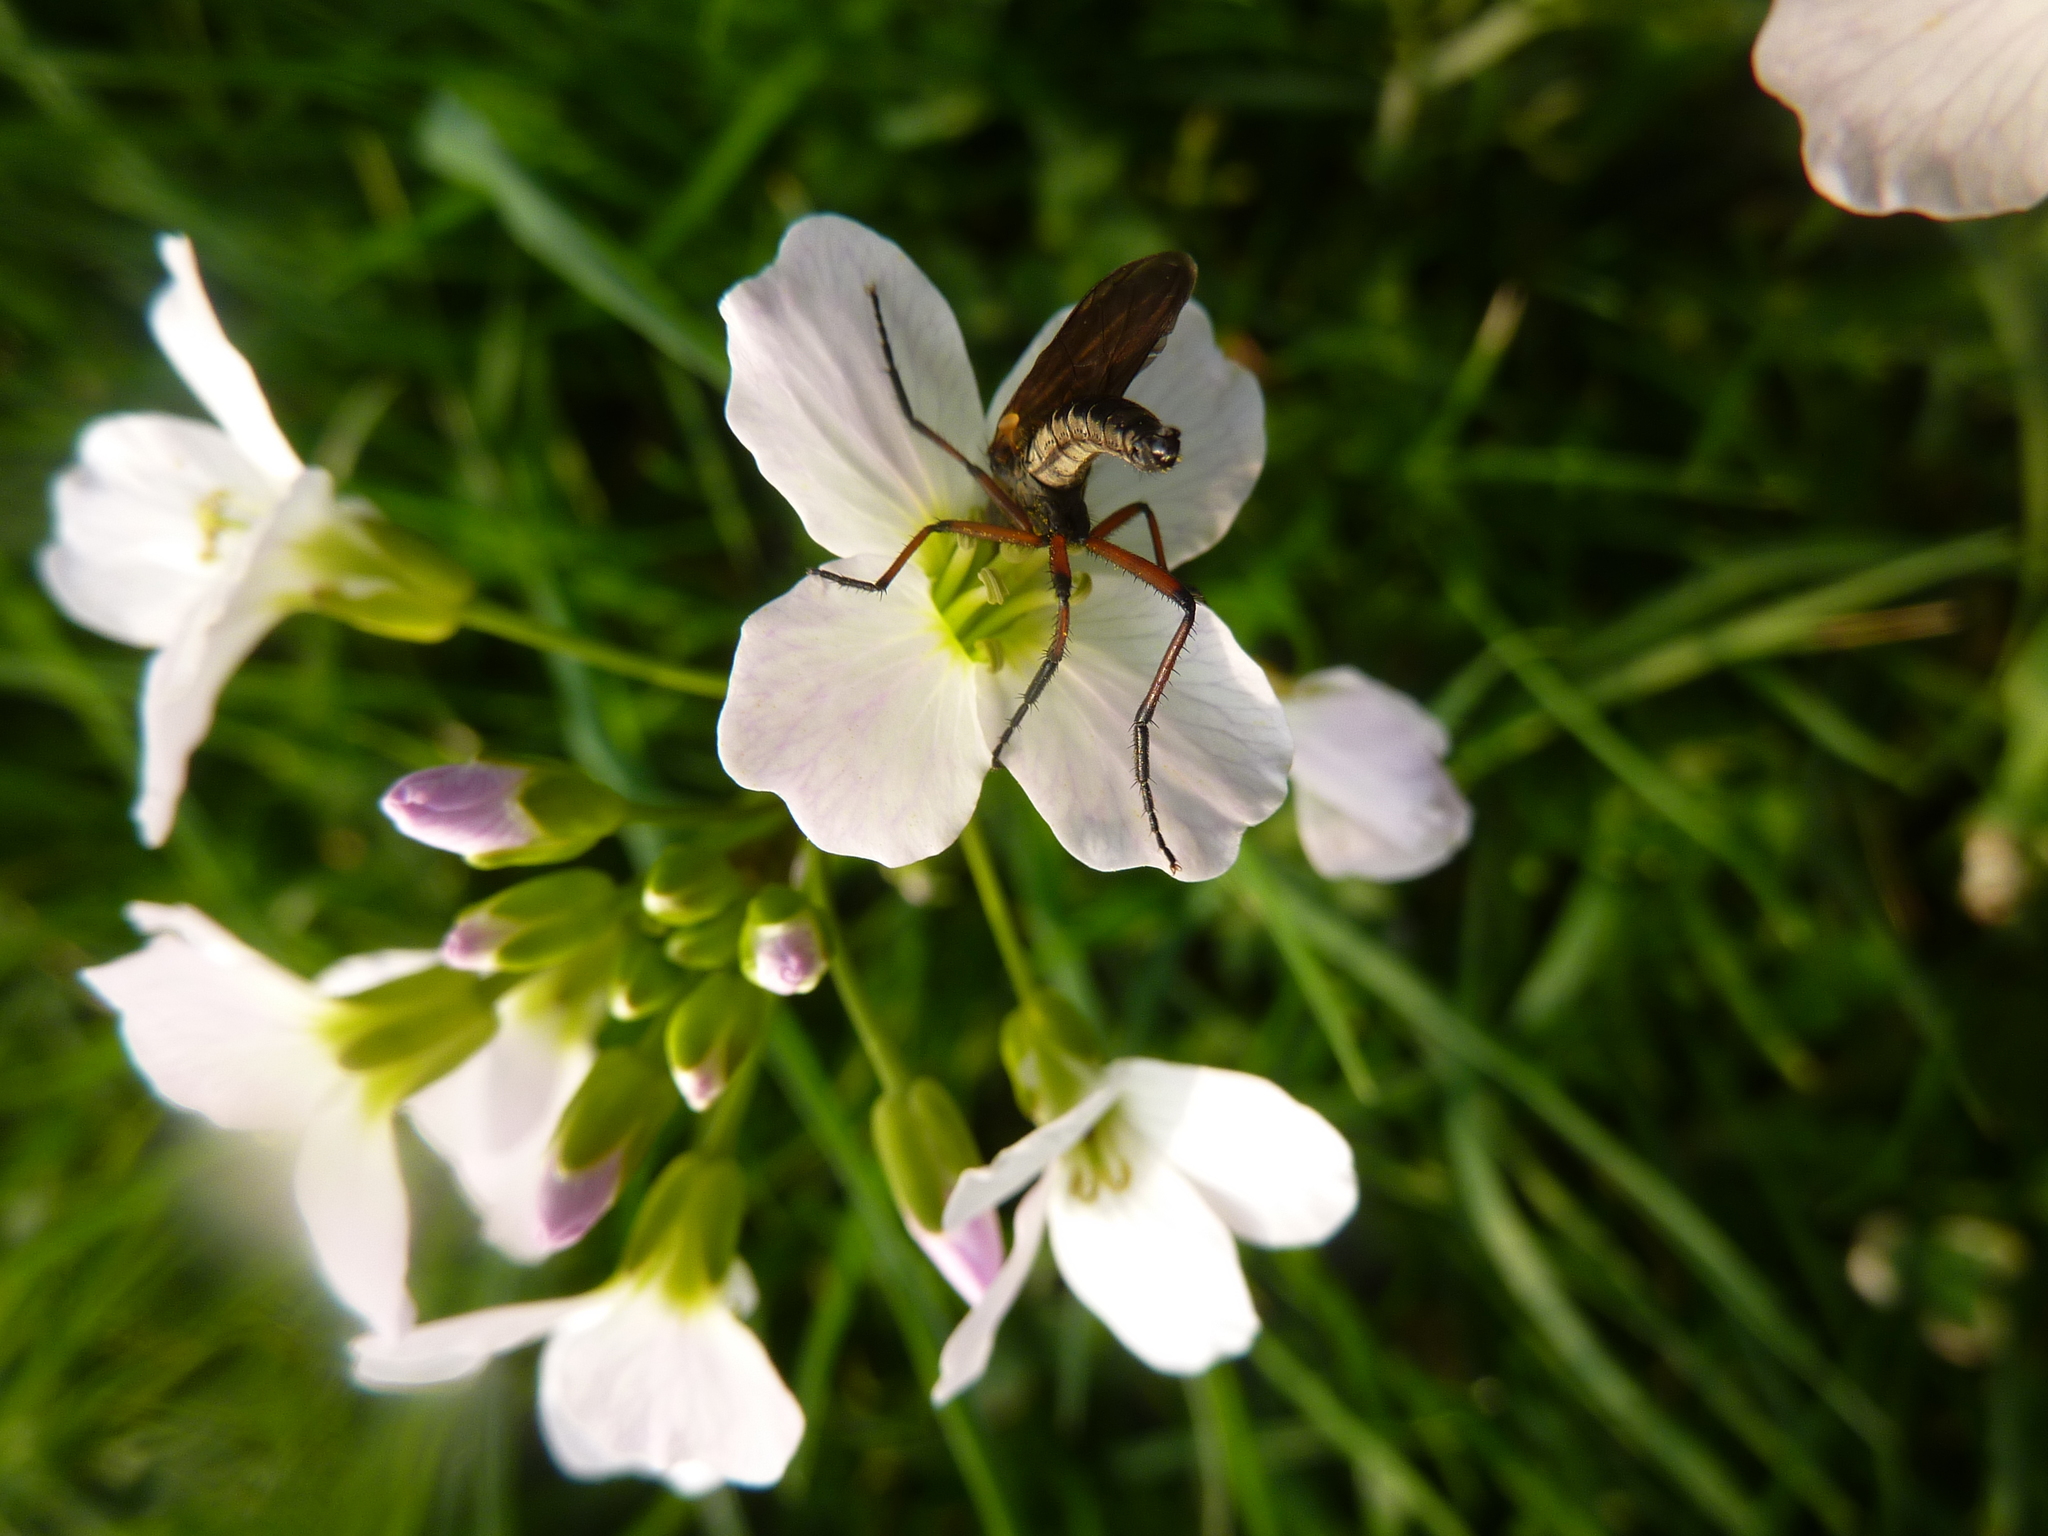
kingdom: Plantae
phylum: Tracheophyta
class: Magnoliopsida
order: Brassicales
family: Brassicaceae
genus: Cardamine
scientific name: Cardamine pratensis
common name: Cuckoo flower
